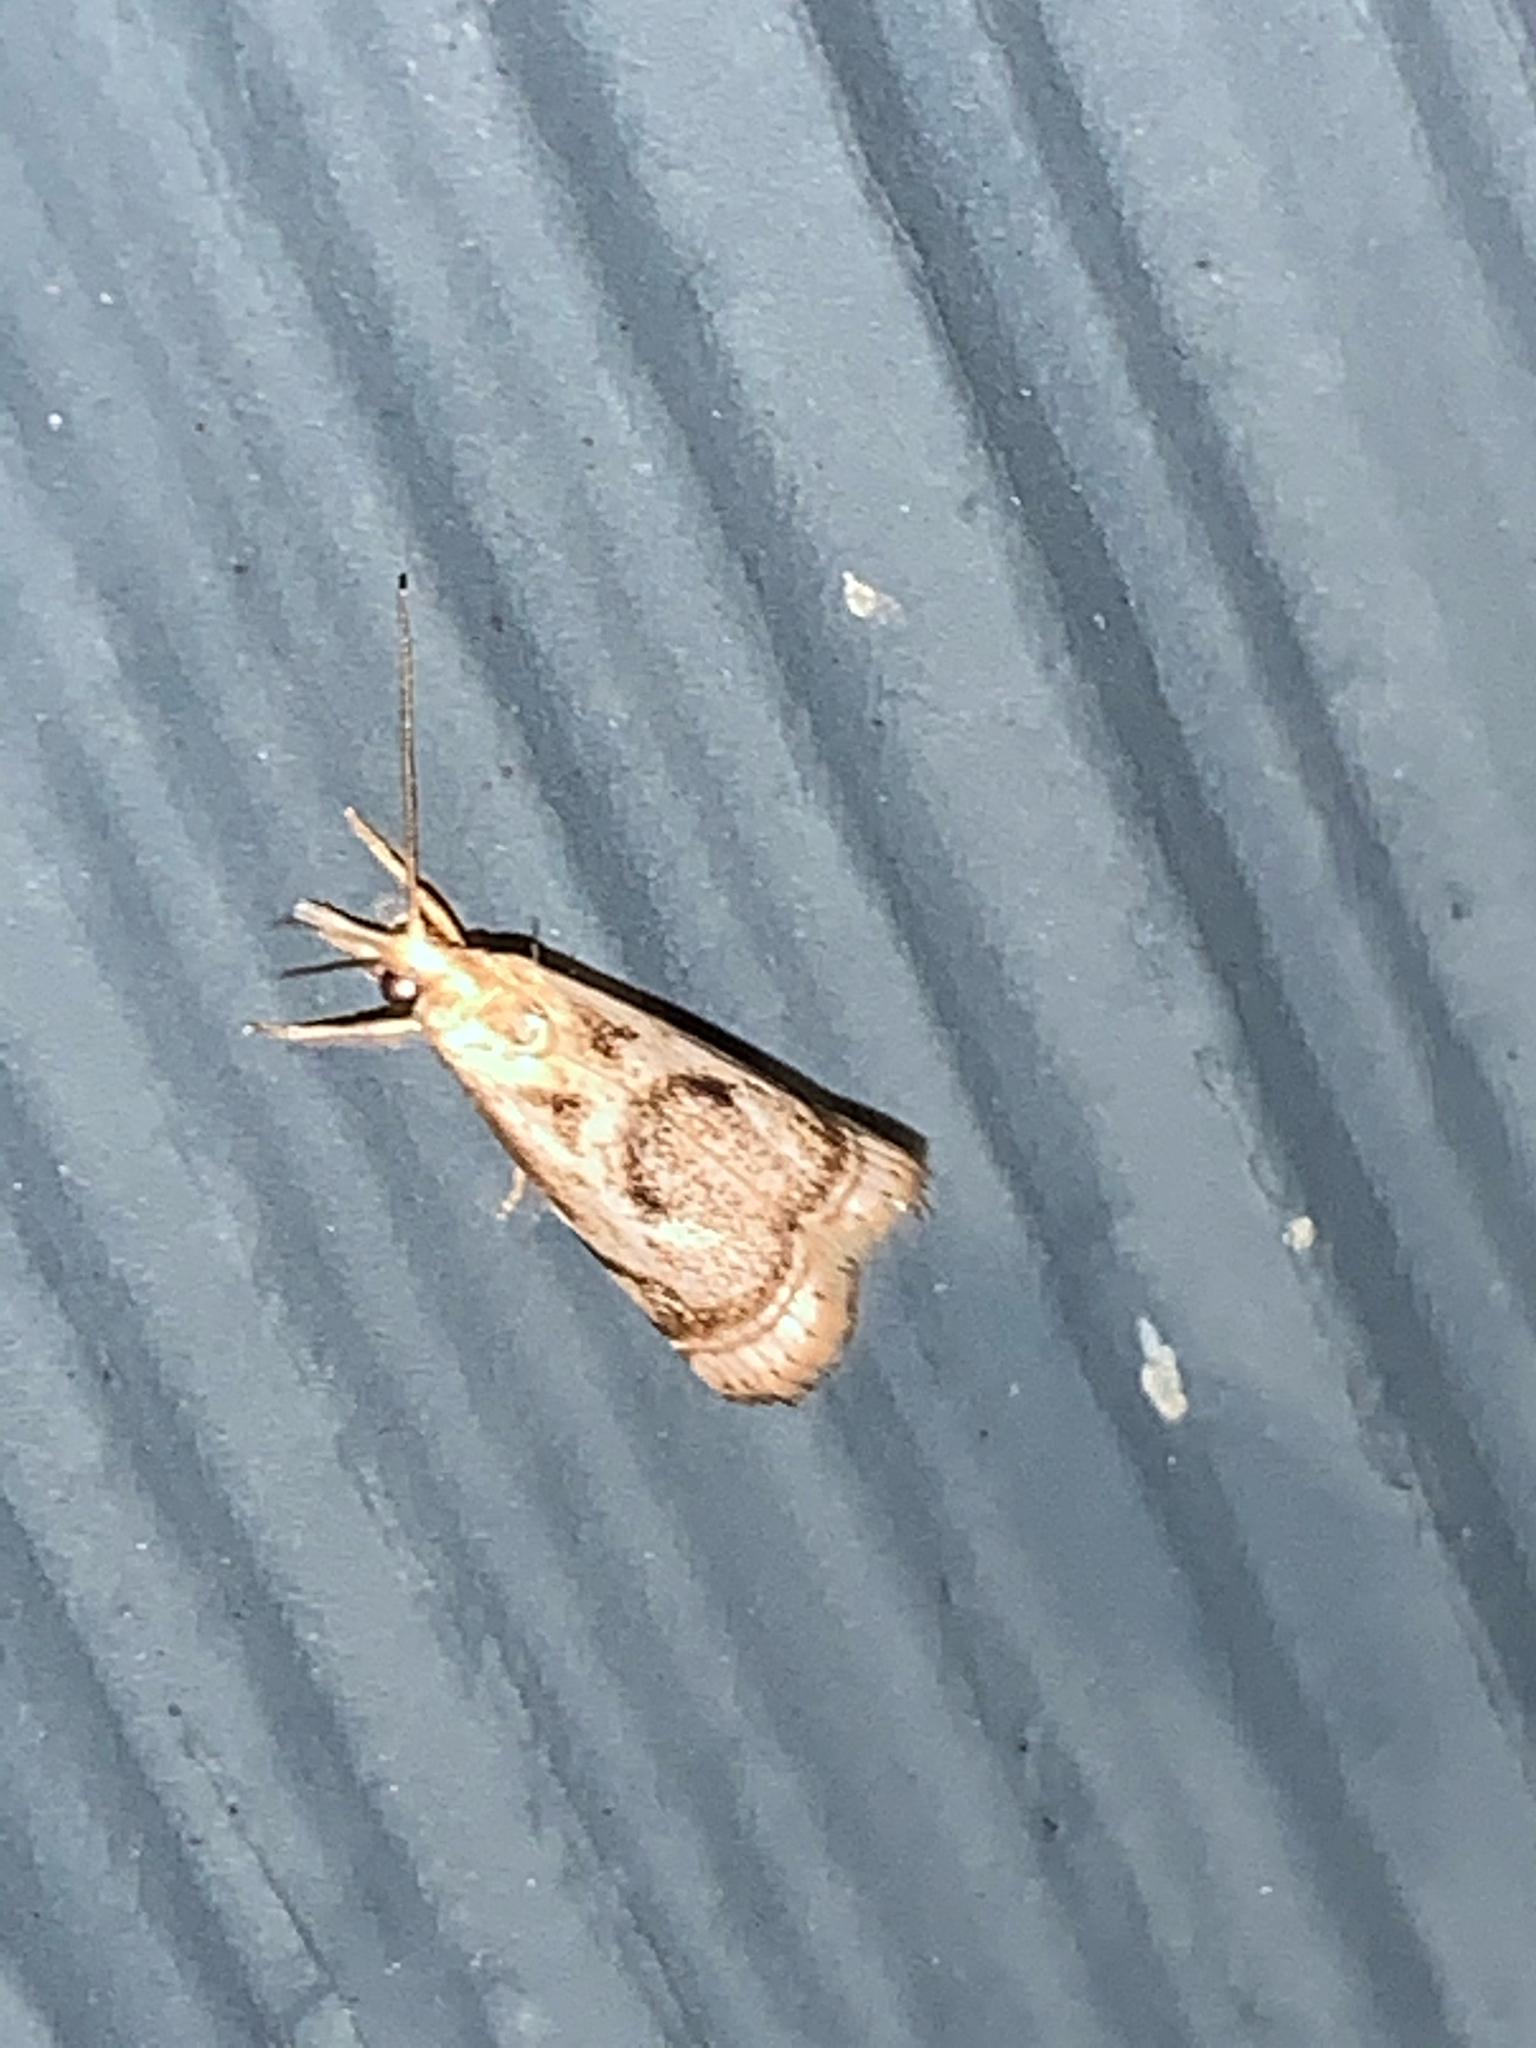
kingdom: Animalia
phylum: Arthropoda
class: Insecta
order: Lepidoptera
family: Crambidae
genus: Microcrambus
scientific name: Microcrambus elegans
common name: Elegant grass-veneer
